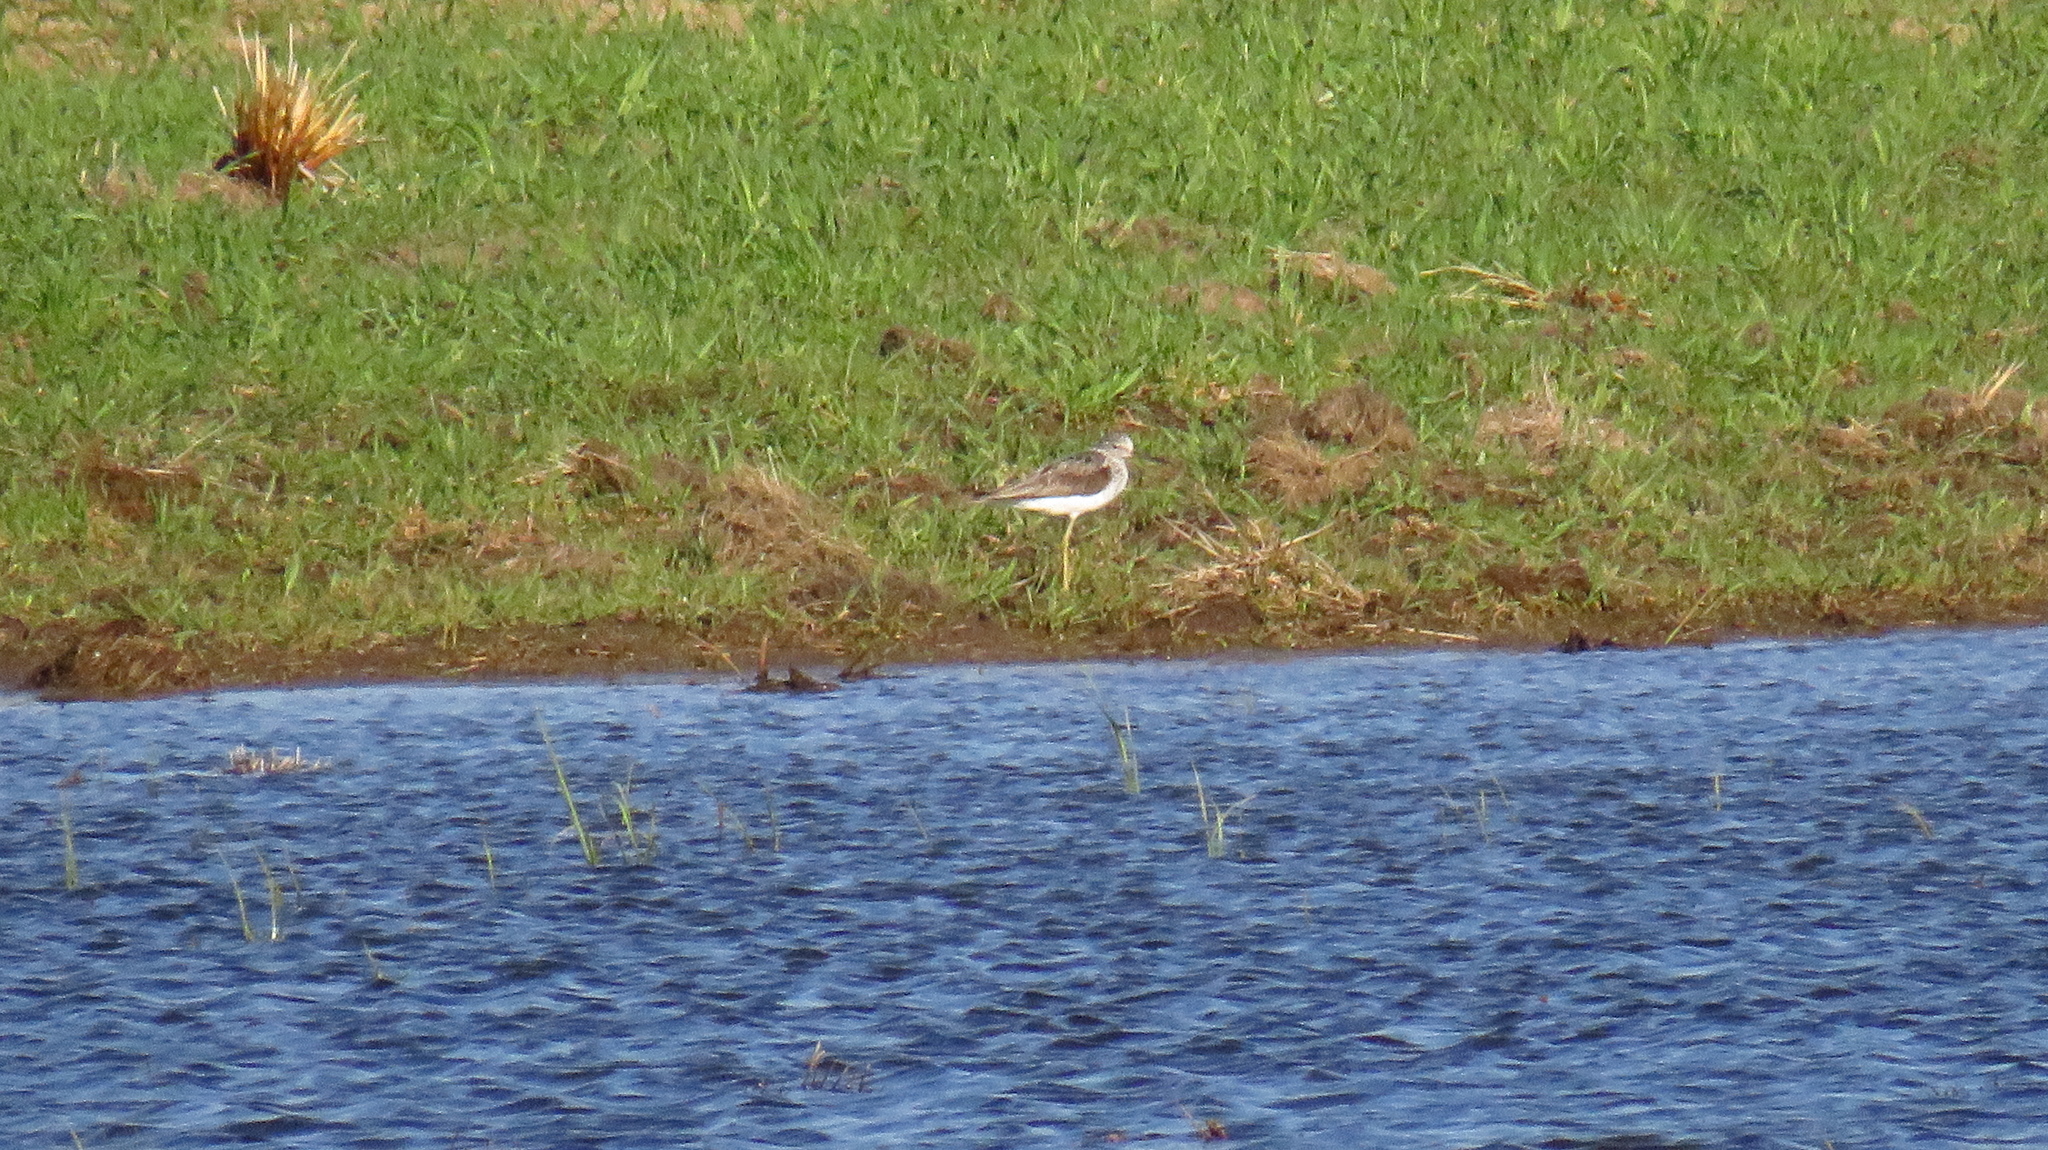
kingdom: Animalia
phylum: Chordata
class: Aves
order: Charadriiformes
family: Scolopacidae
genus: Tringa
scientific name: Tringa nebularia
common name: Common greenshank
